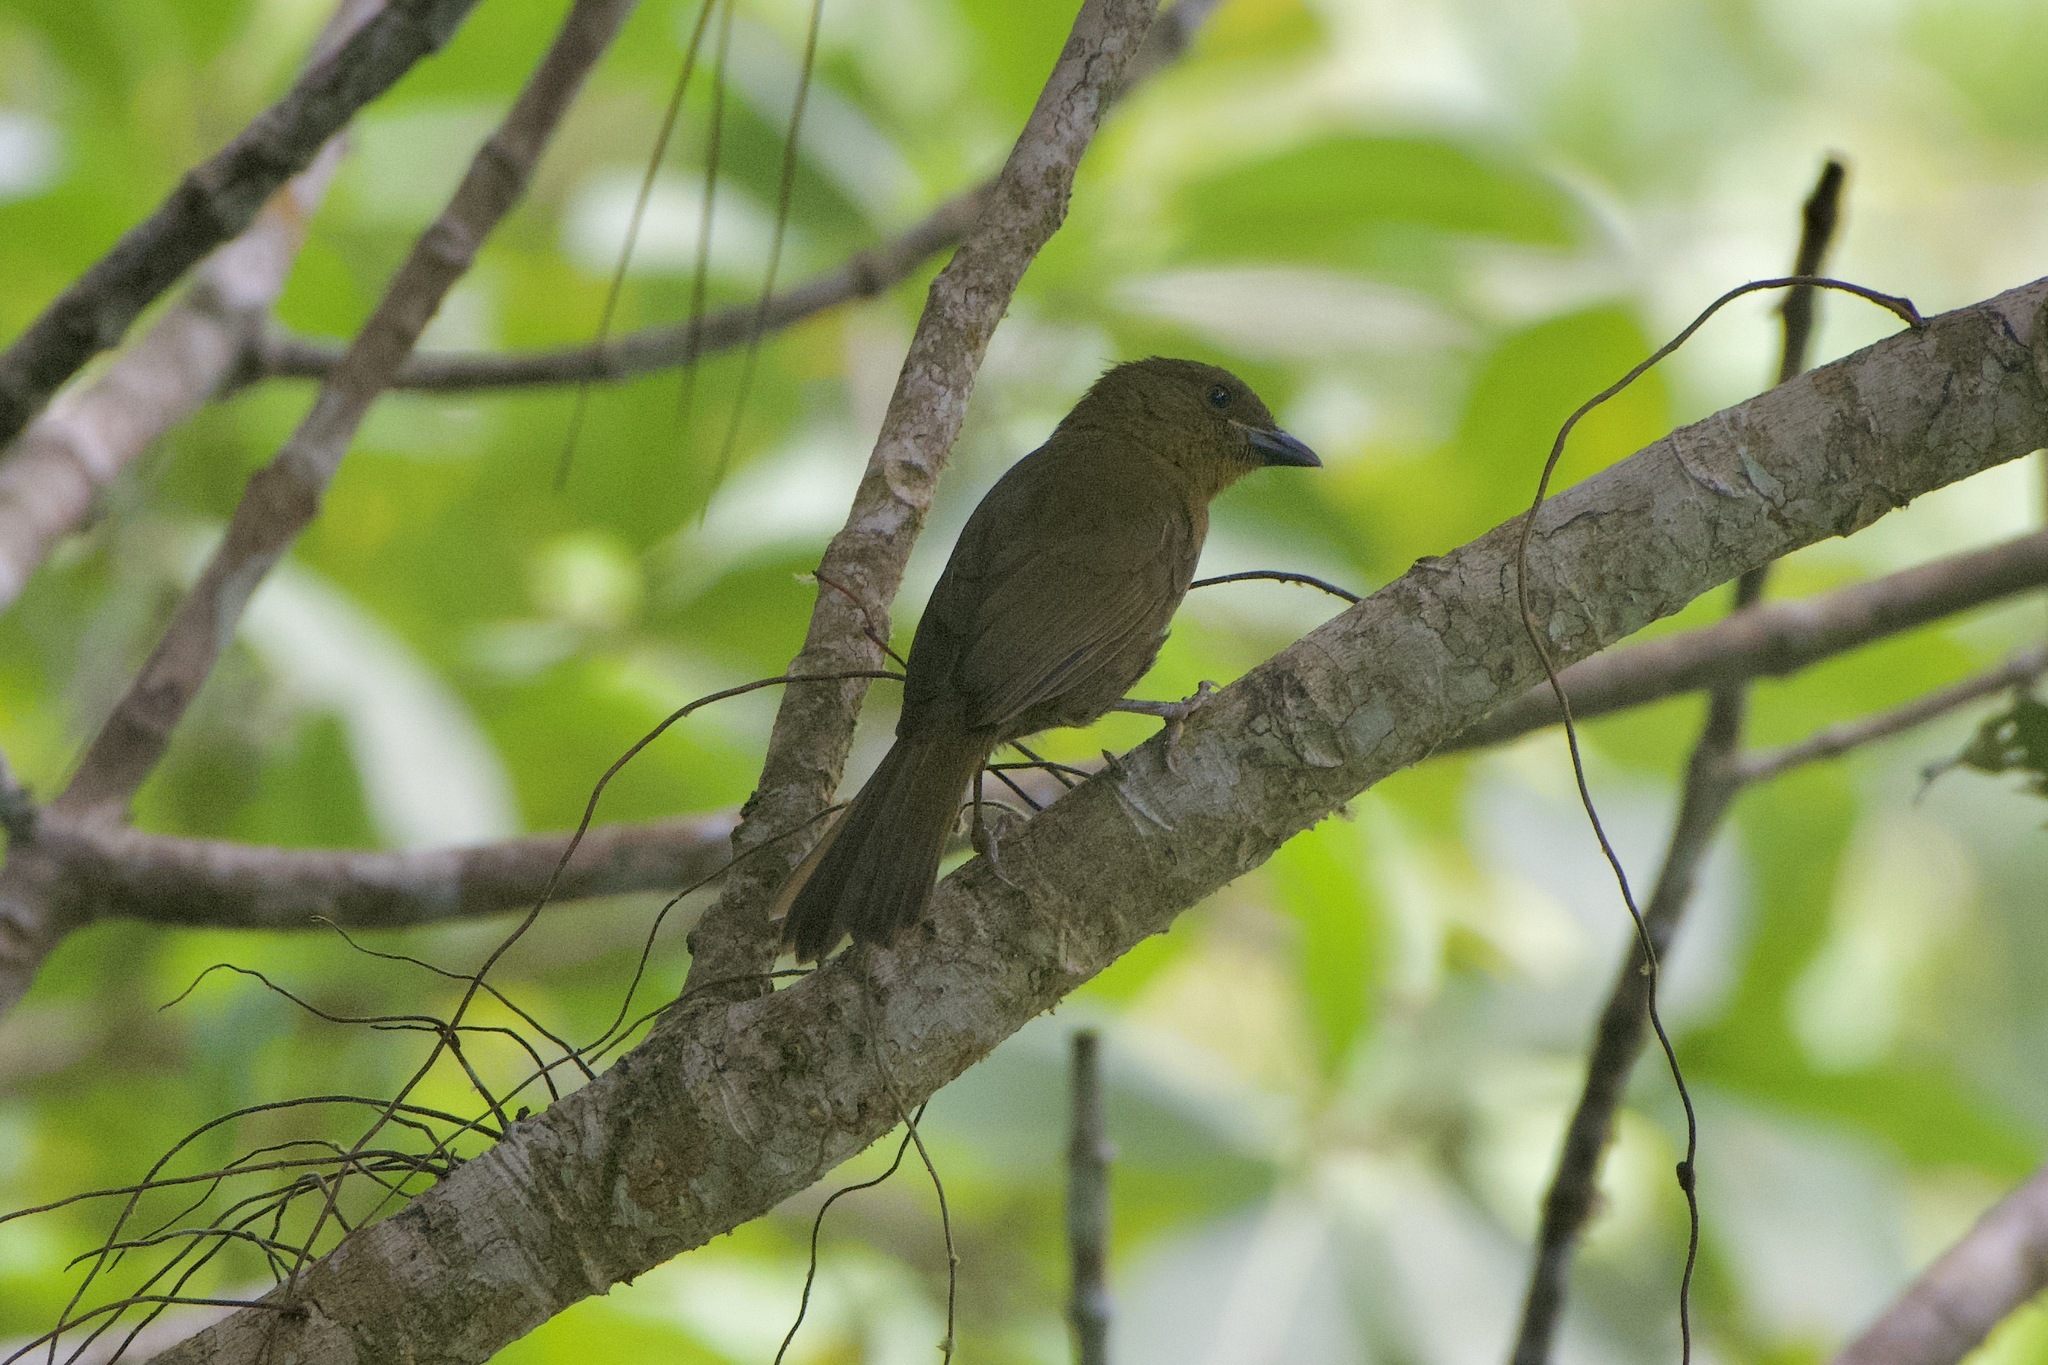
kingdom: Animalia
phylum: Chordata
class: Aves
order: Passeriformes
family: Cardinalidae
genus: Habia
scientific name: Habia rubica
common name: Red-crowned ant-tanager
